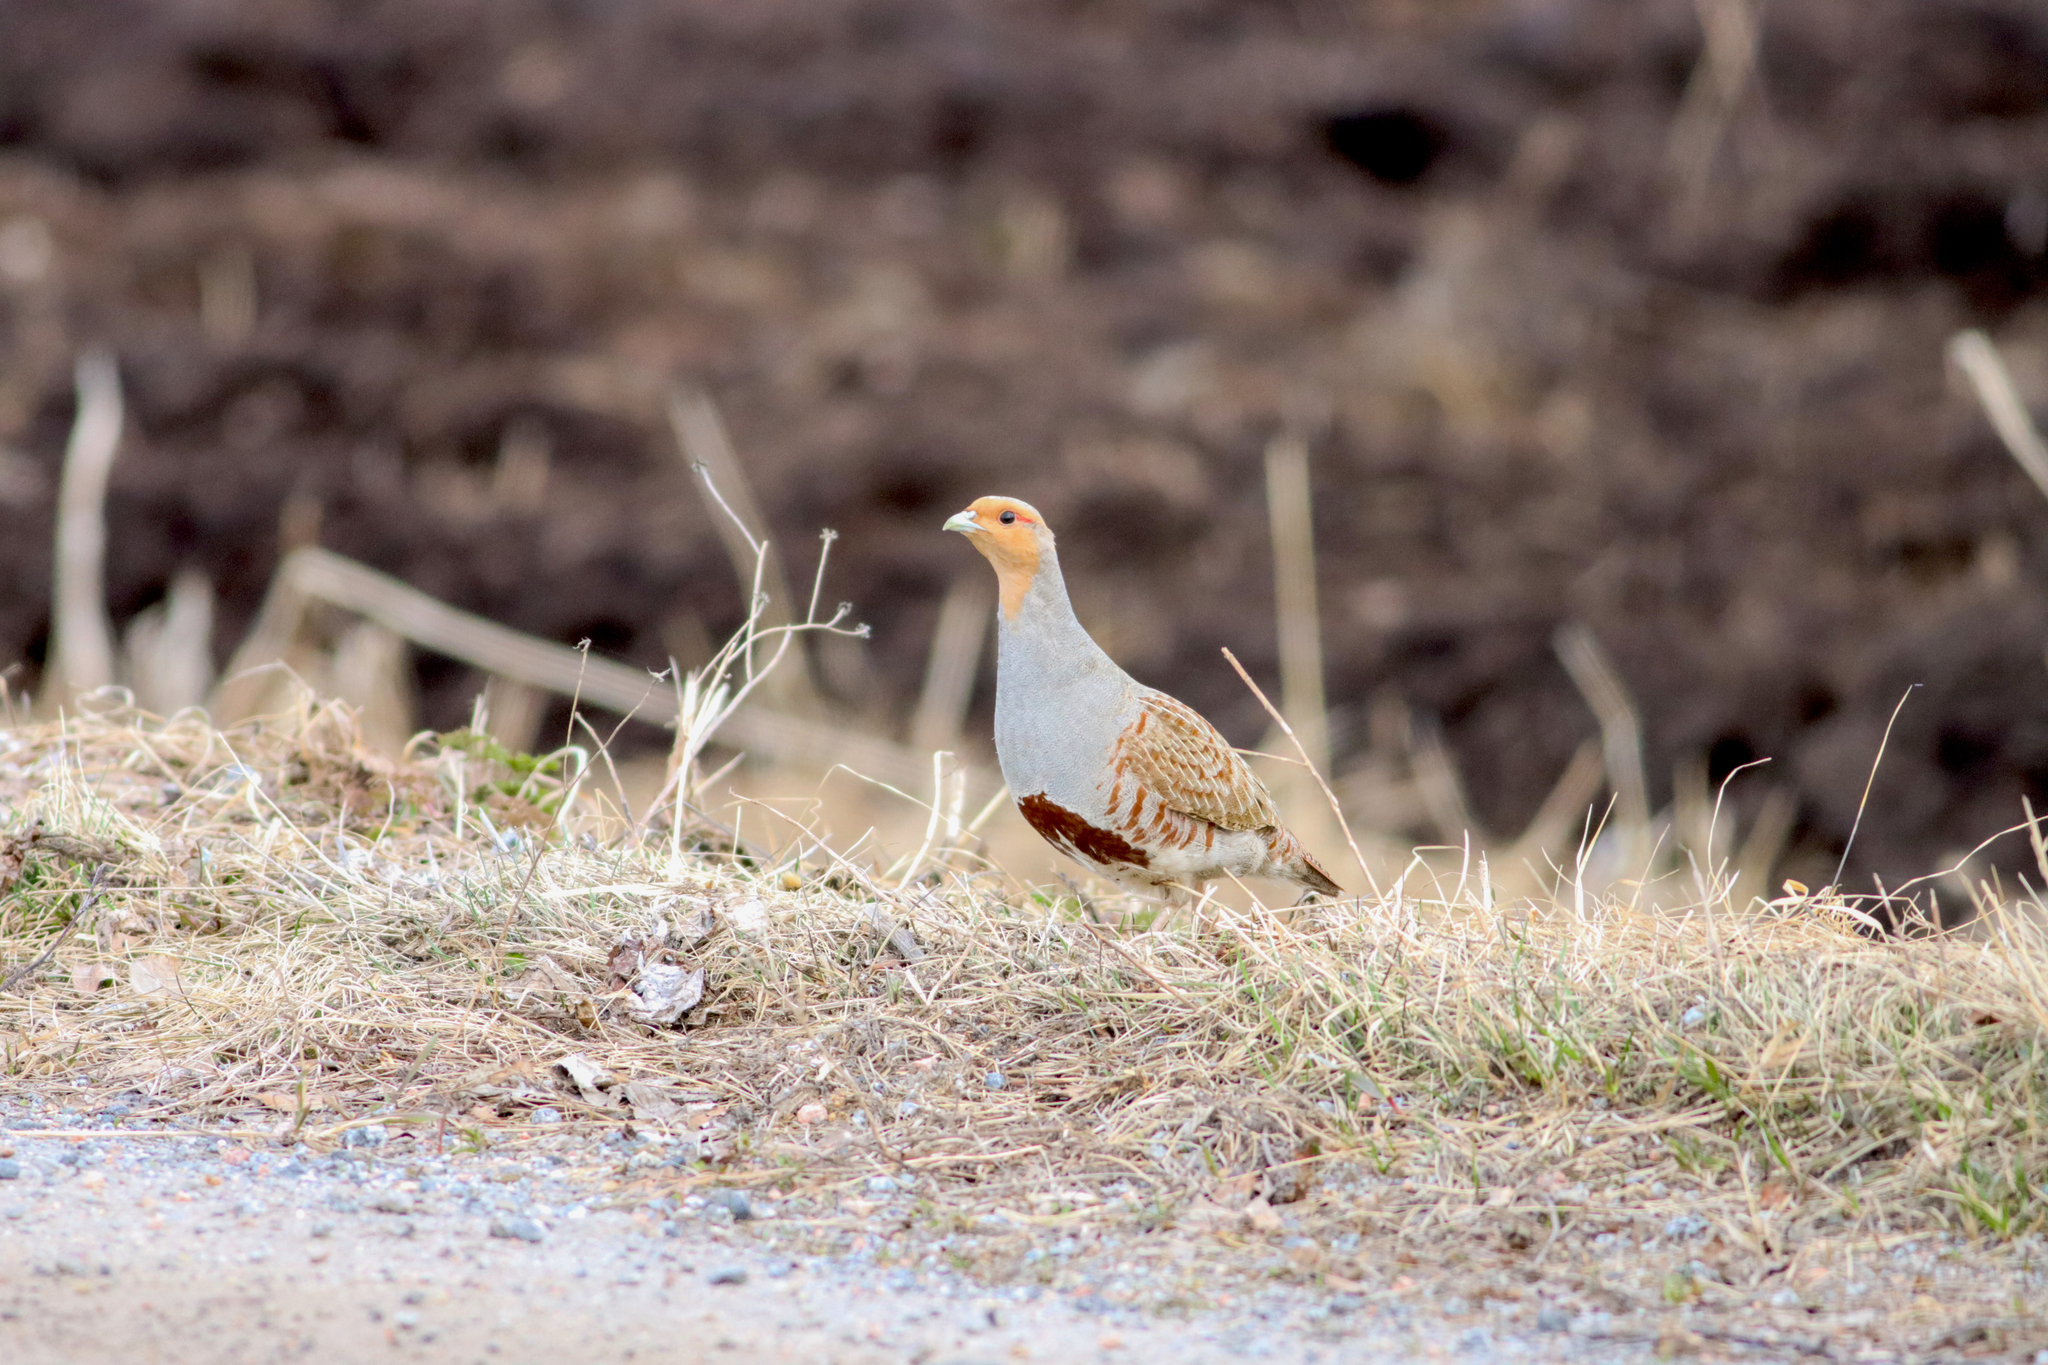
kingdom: Animalia
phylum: Chordata
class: Aves
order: Galliformes
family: Phasianidae
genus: Perdix
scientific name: Perdix perdix
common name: Grey partridge
